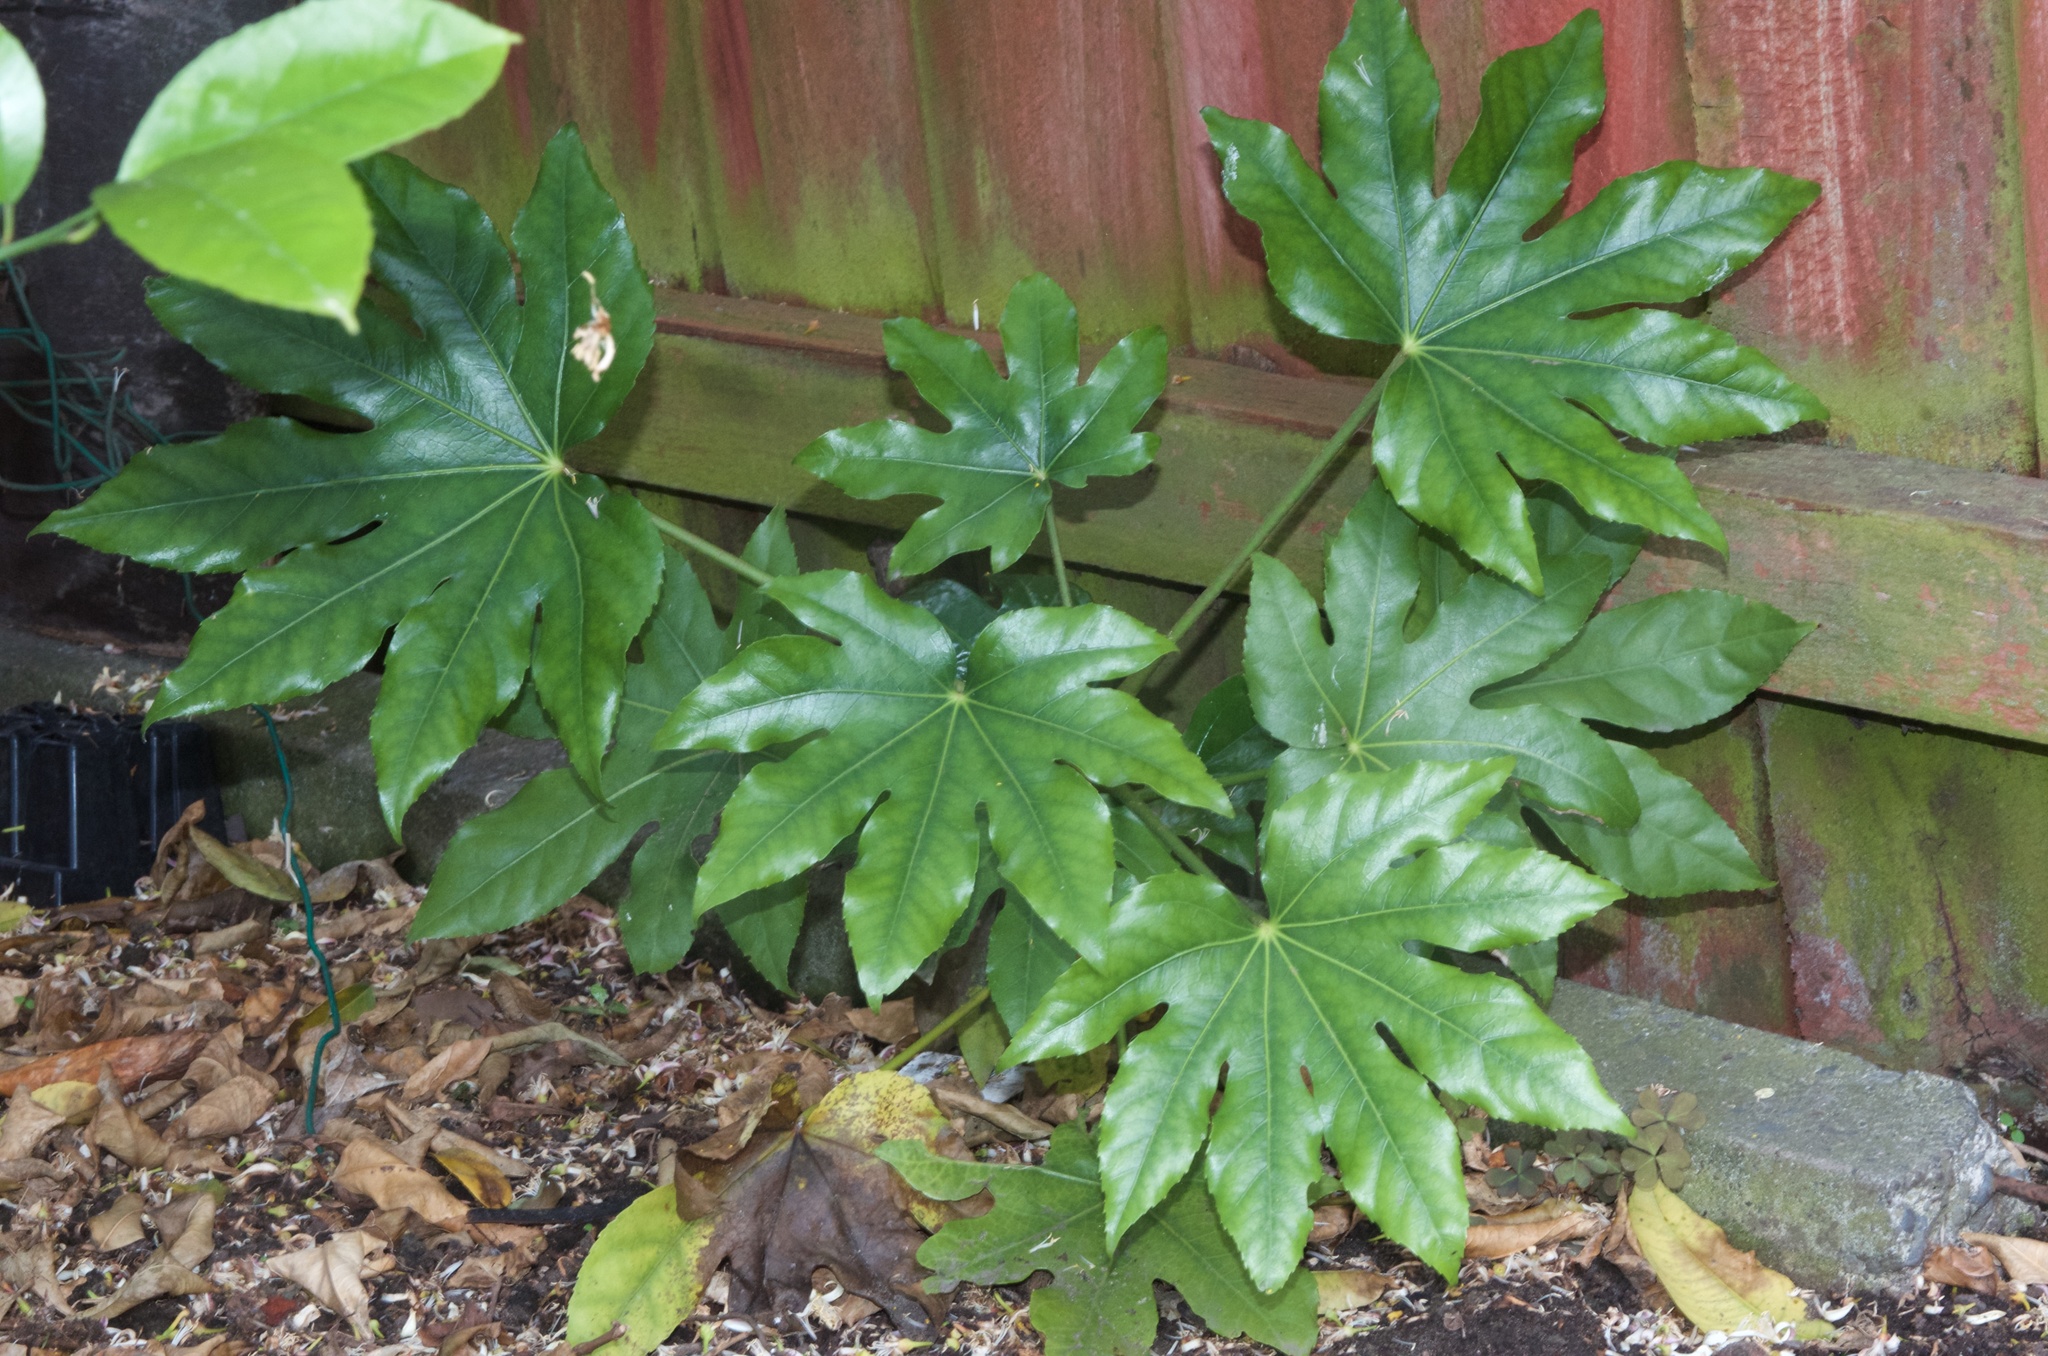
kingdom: Plantae
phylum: Tracheophyta
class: Magnoliopsida
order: Apiales
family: Araliaceae
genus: Fatsia
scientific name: Fatsia japonica
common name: Fatsia
